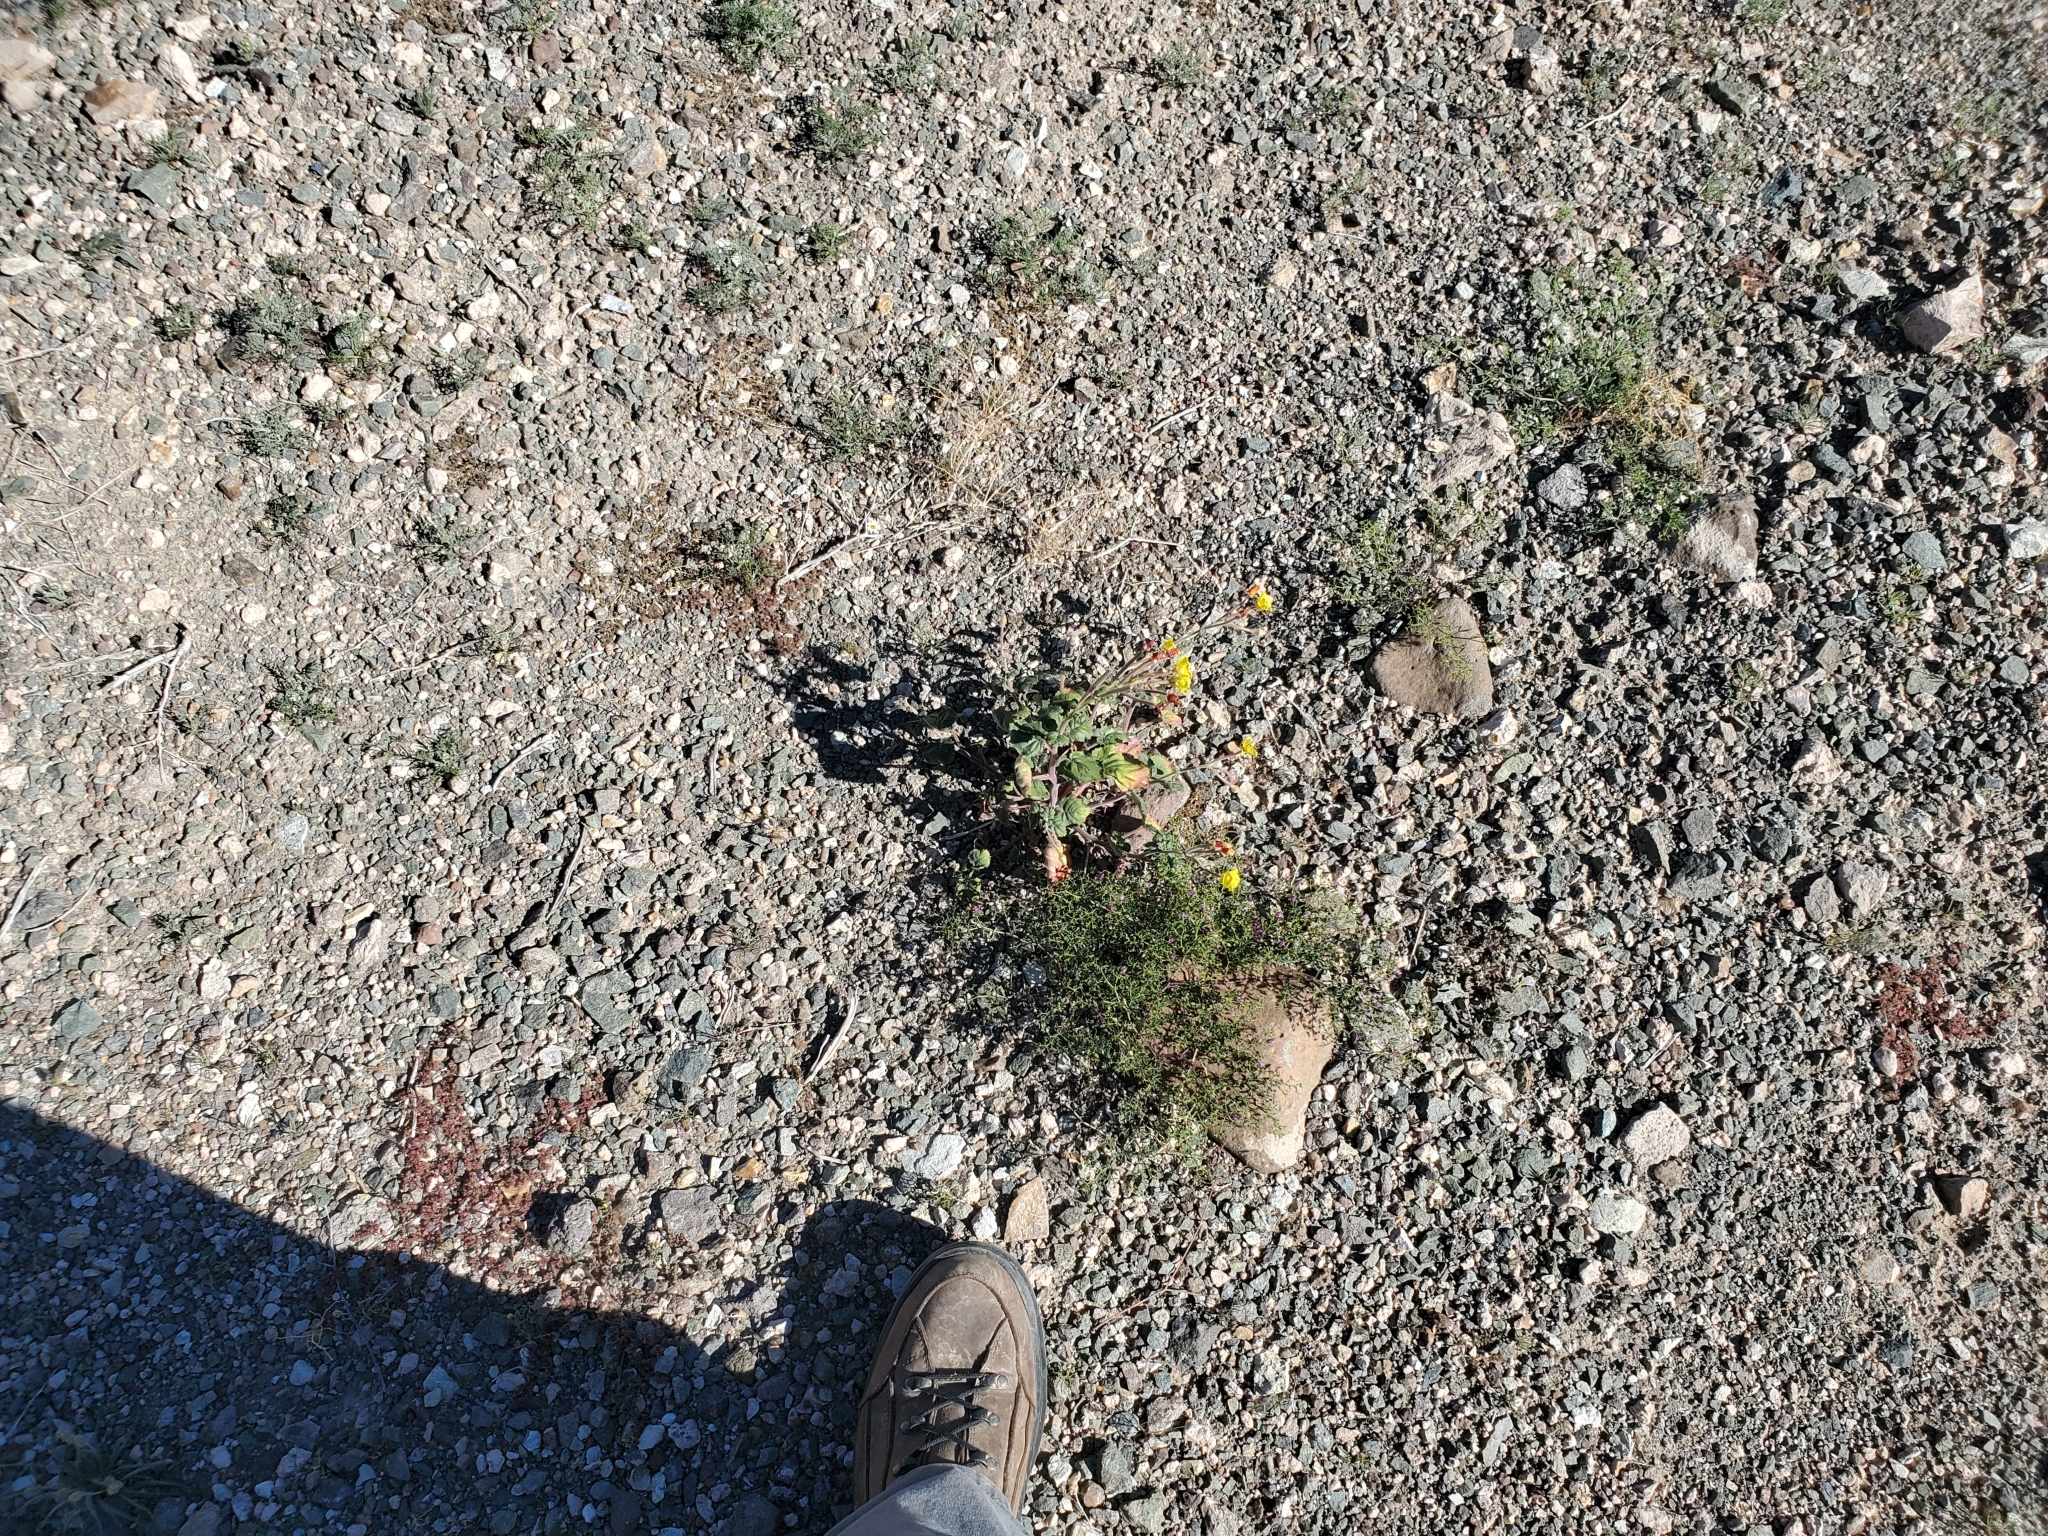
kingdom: Plantae
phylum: Tracheophyta
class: Magnoliopsida
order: Zygophyllales
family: Zygophyllaceae
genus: Fagonia
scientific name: Fagonia laevis
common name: California fagonbush
